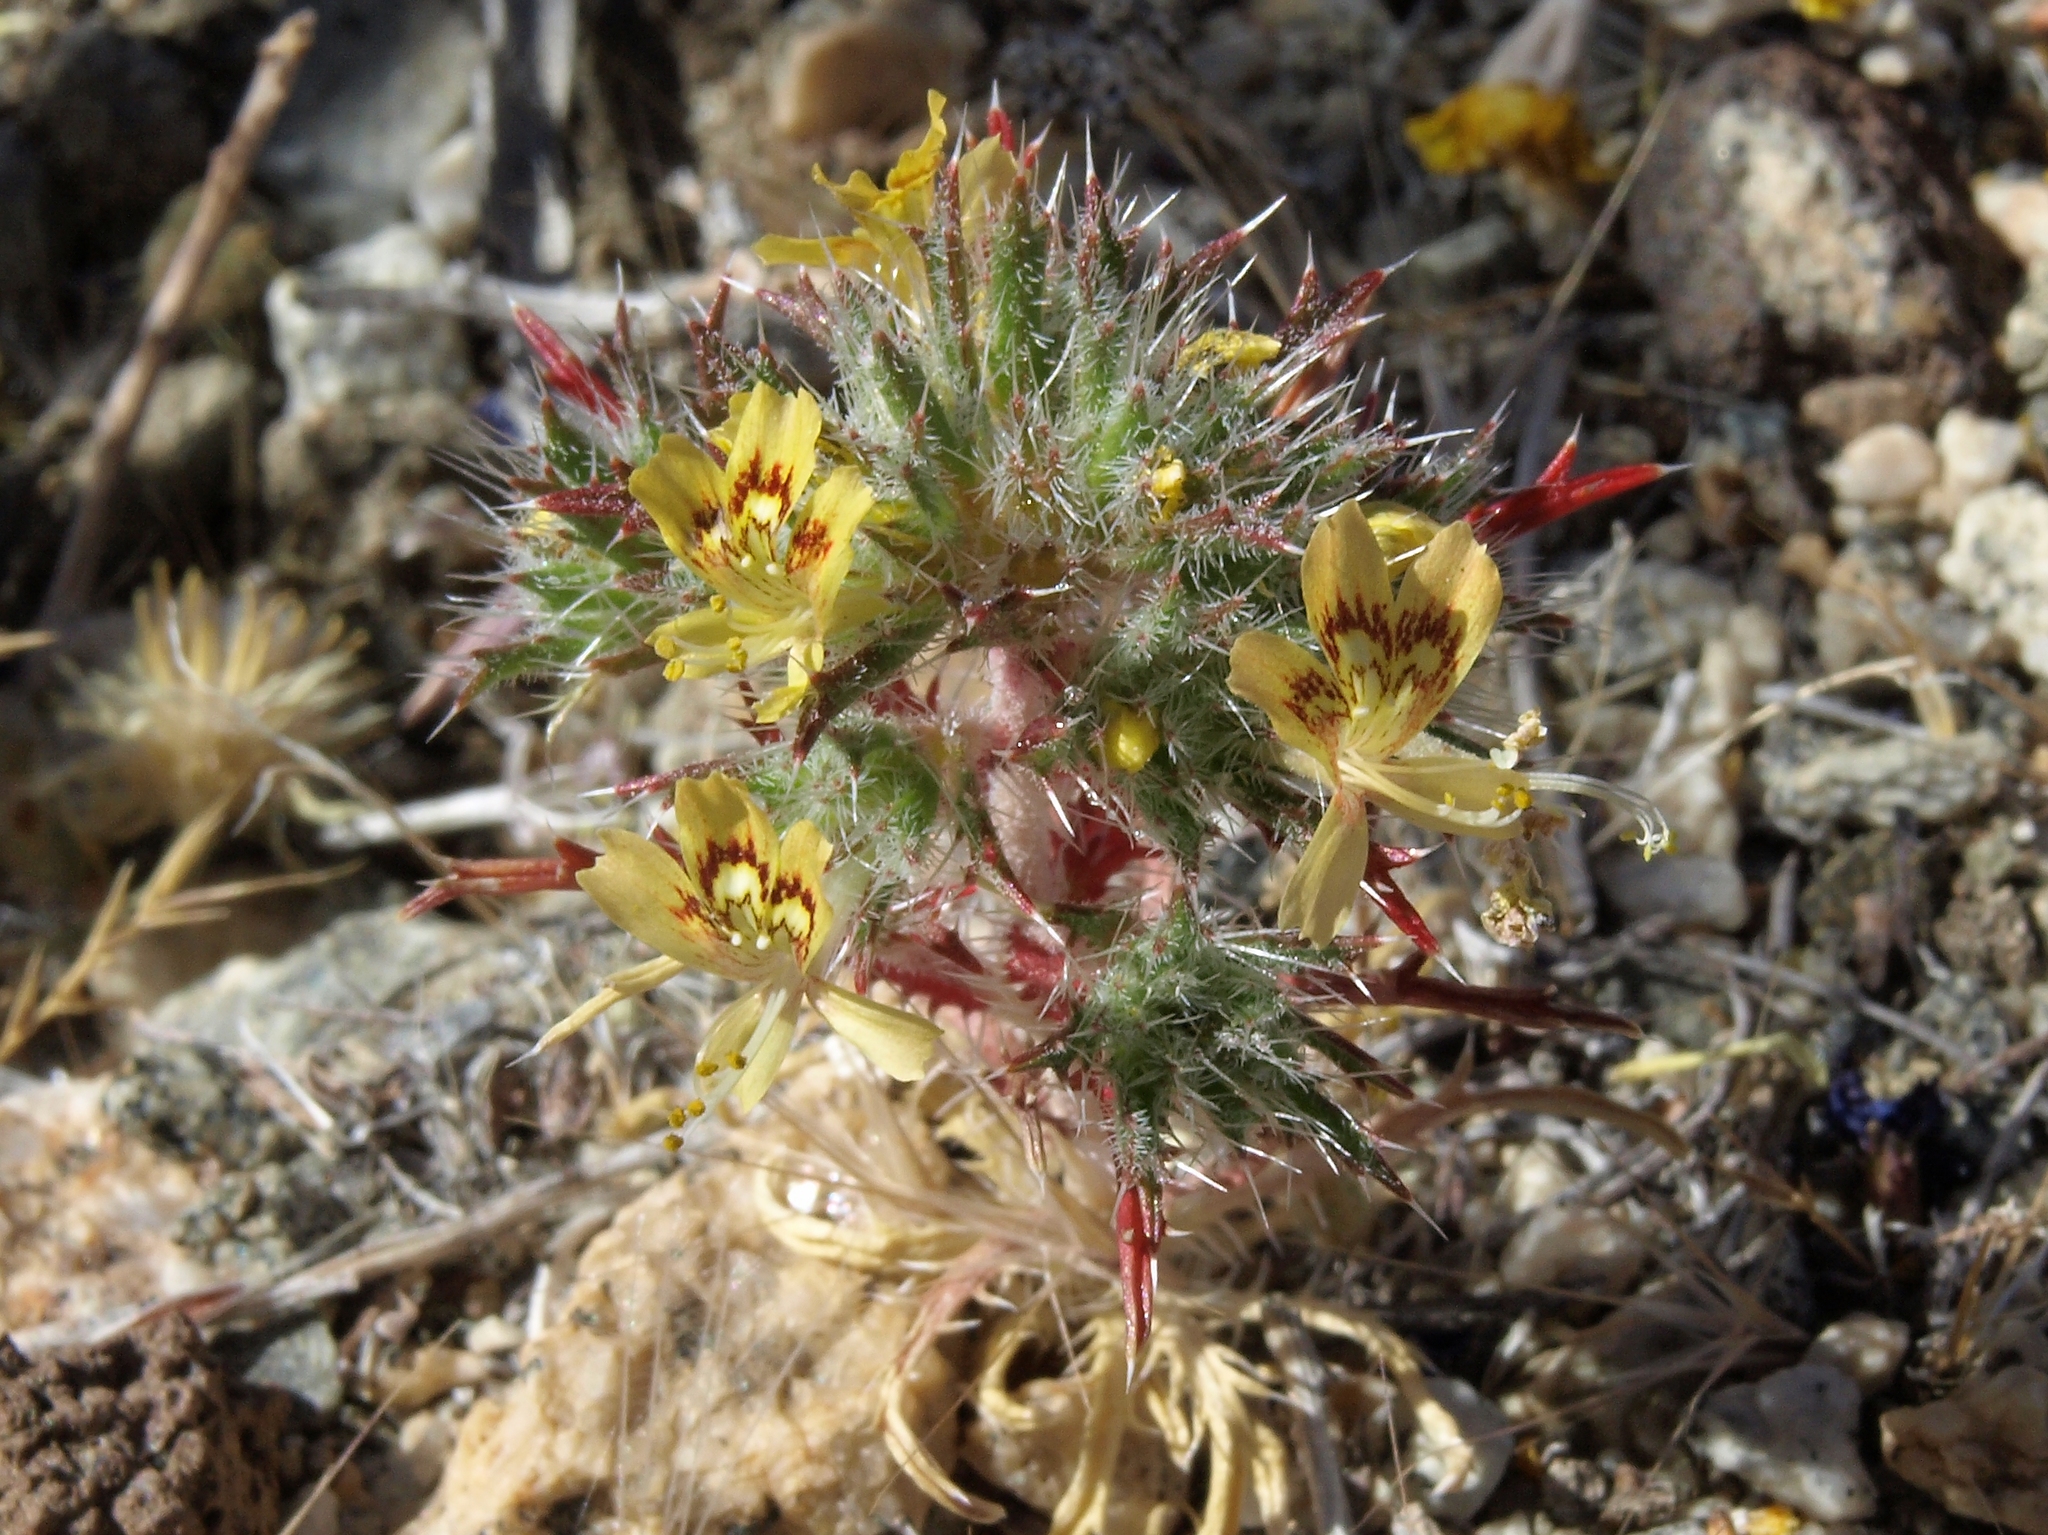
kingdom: Plantae
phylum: Tracheophyta
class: Magnoliopsida
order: Ericales
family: Polemoniaceae
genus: Loeseliastrum
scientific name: Loeseliastrum matthewsii
